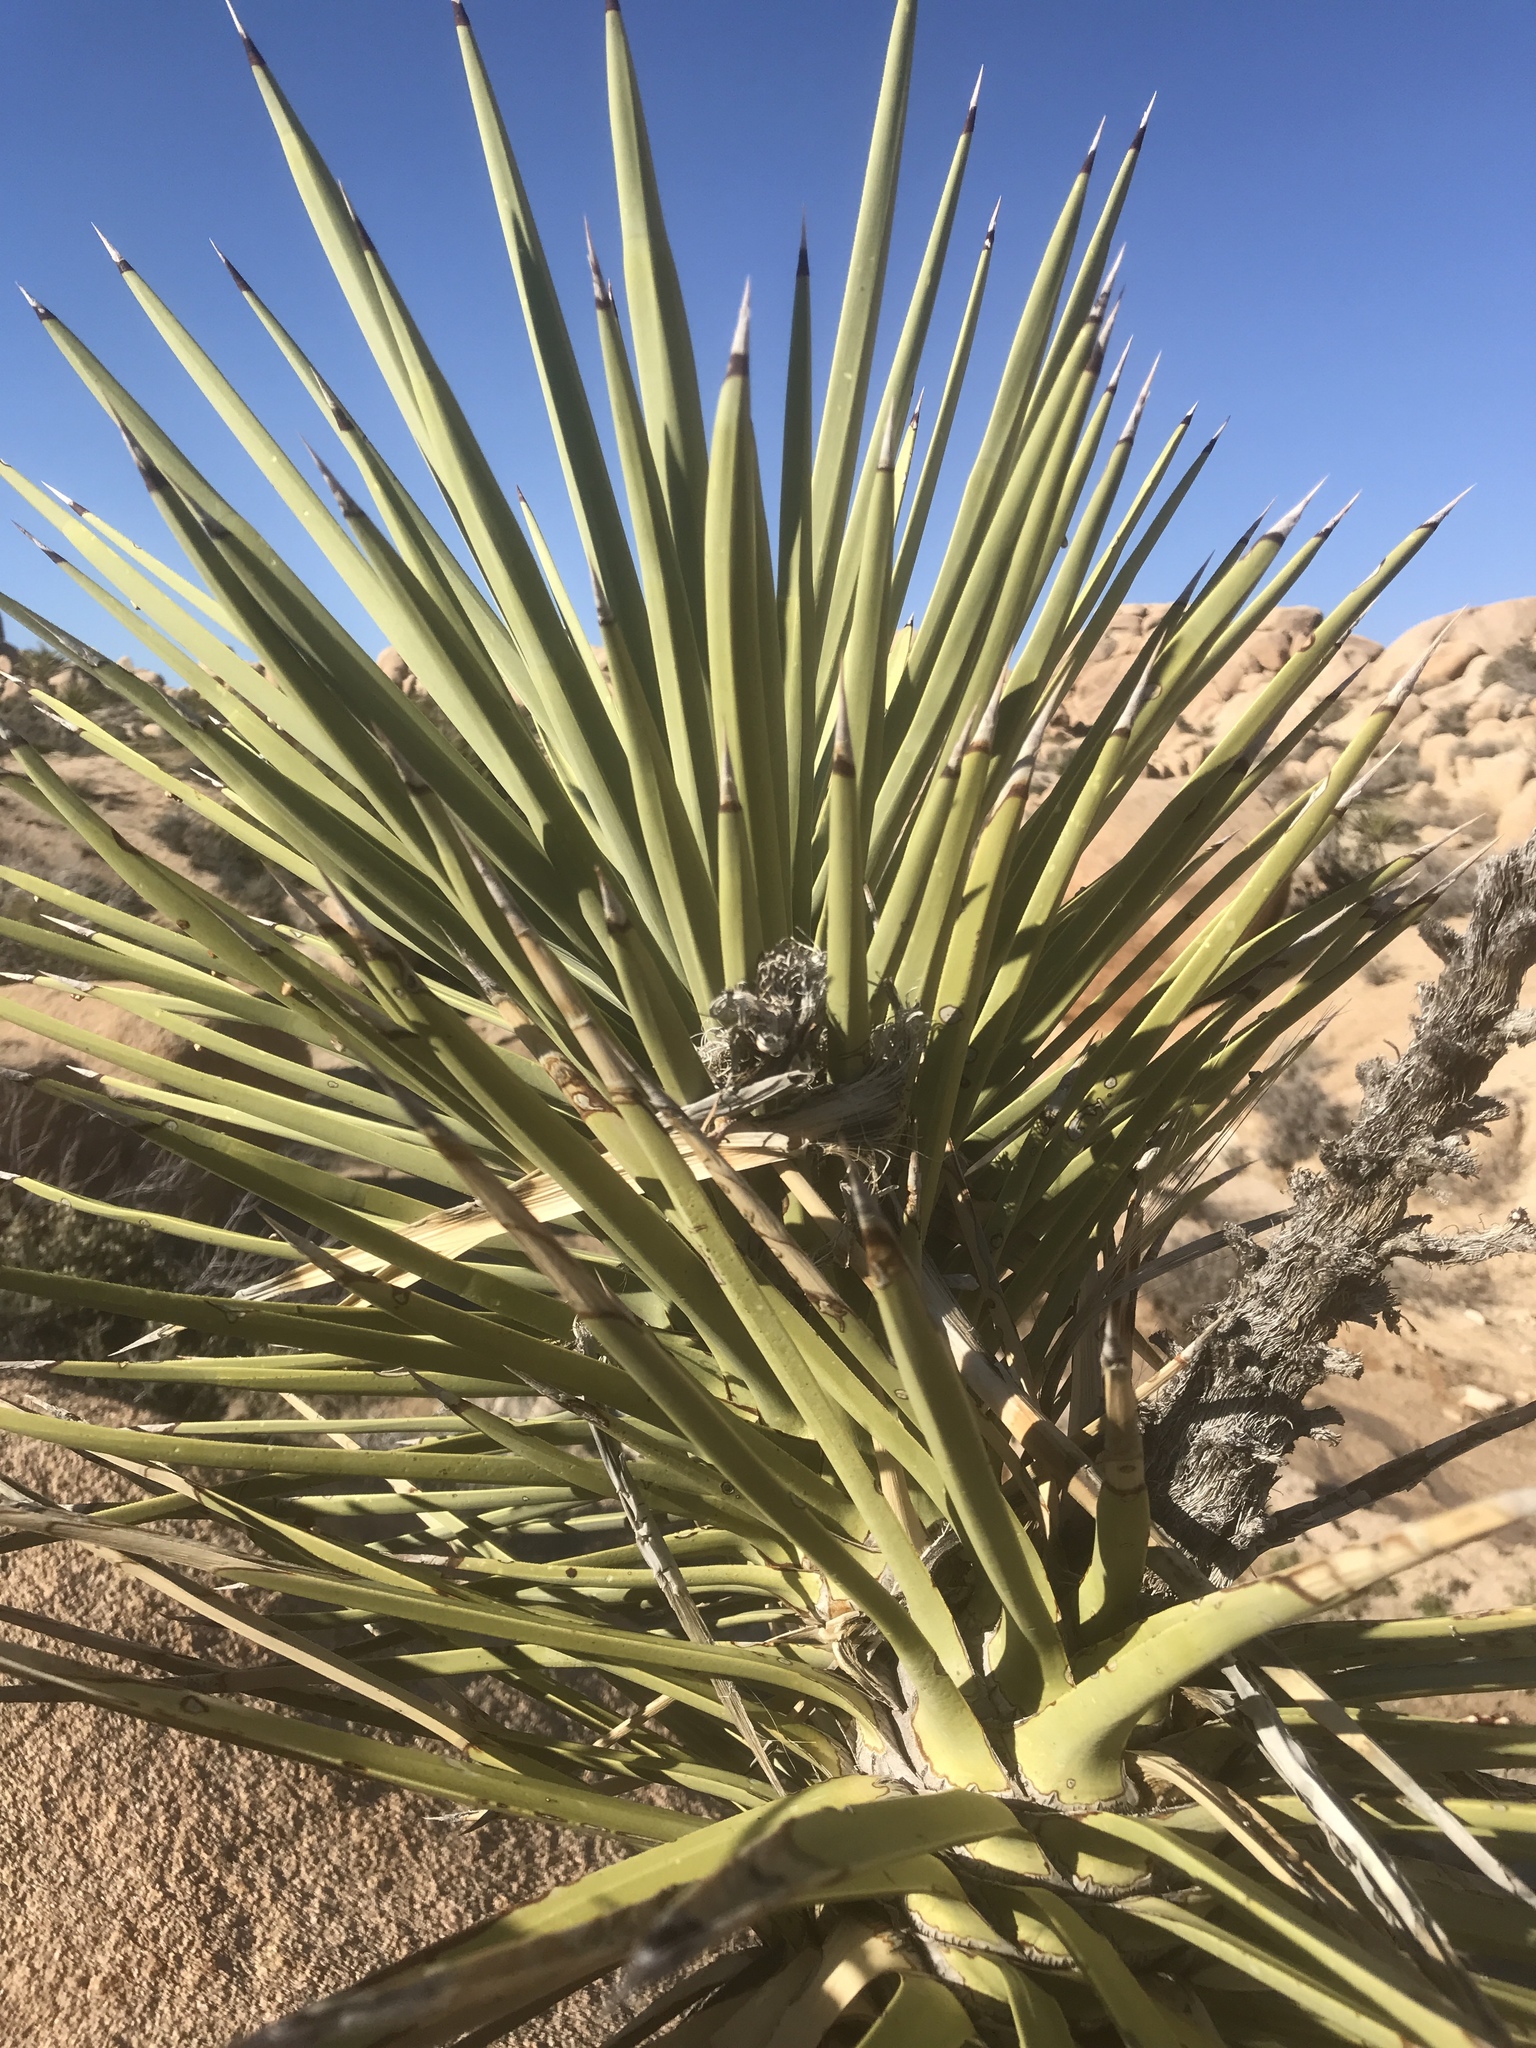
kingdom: Plantae
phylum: Tracheophyta
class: Liliopsida
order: Asparagales
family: Asparagaceae
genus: Yucca
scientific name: Yucca brevifolia
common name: Joshua tree
